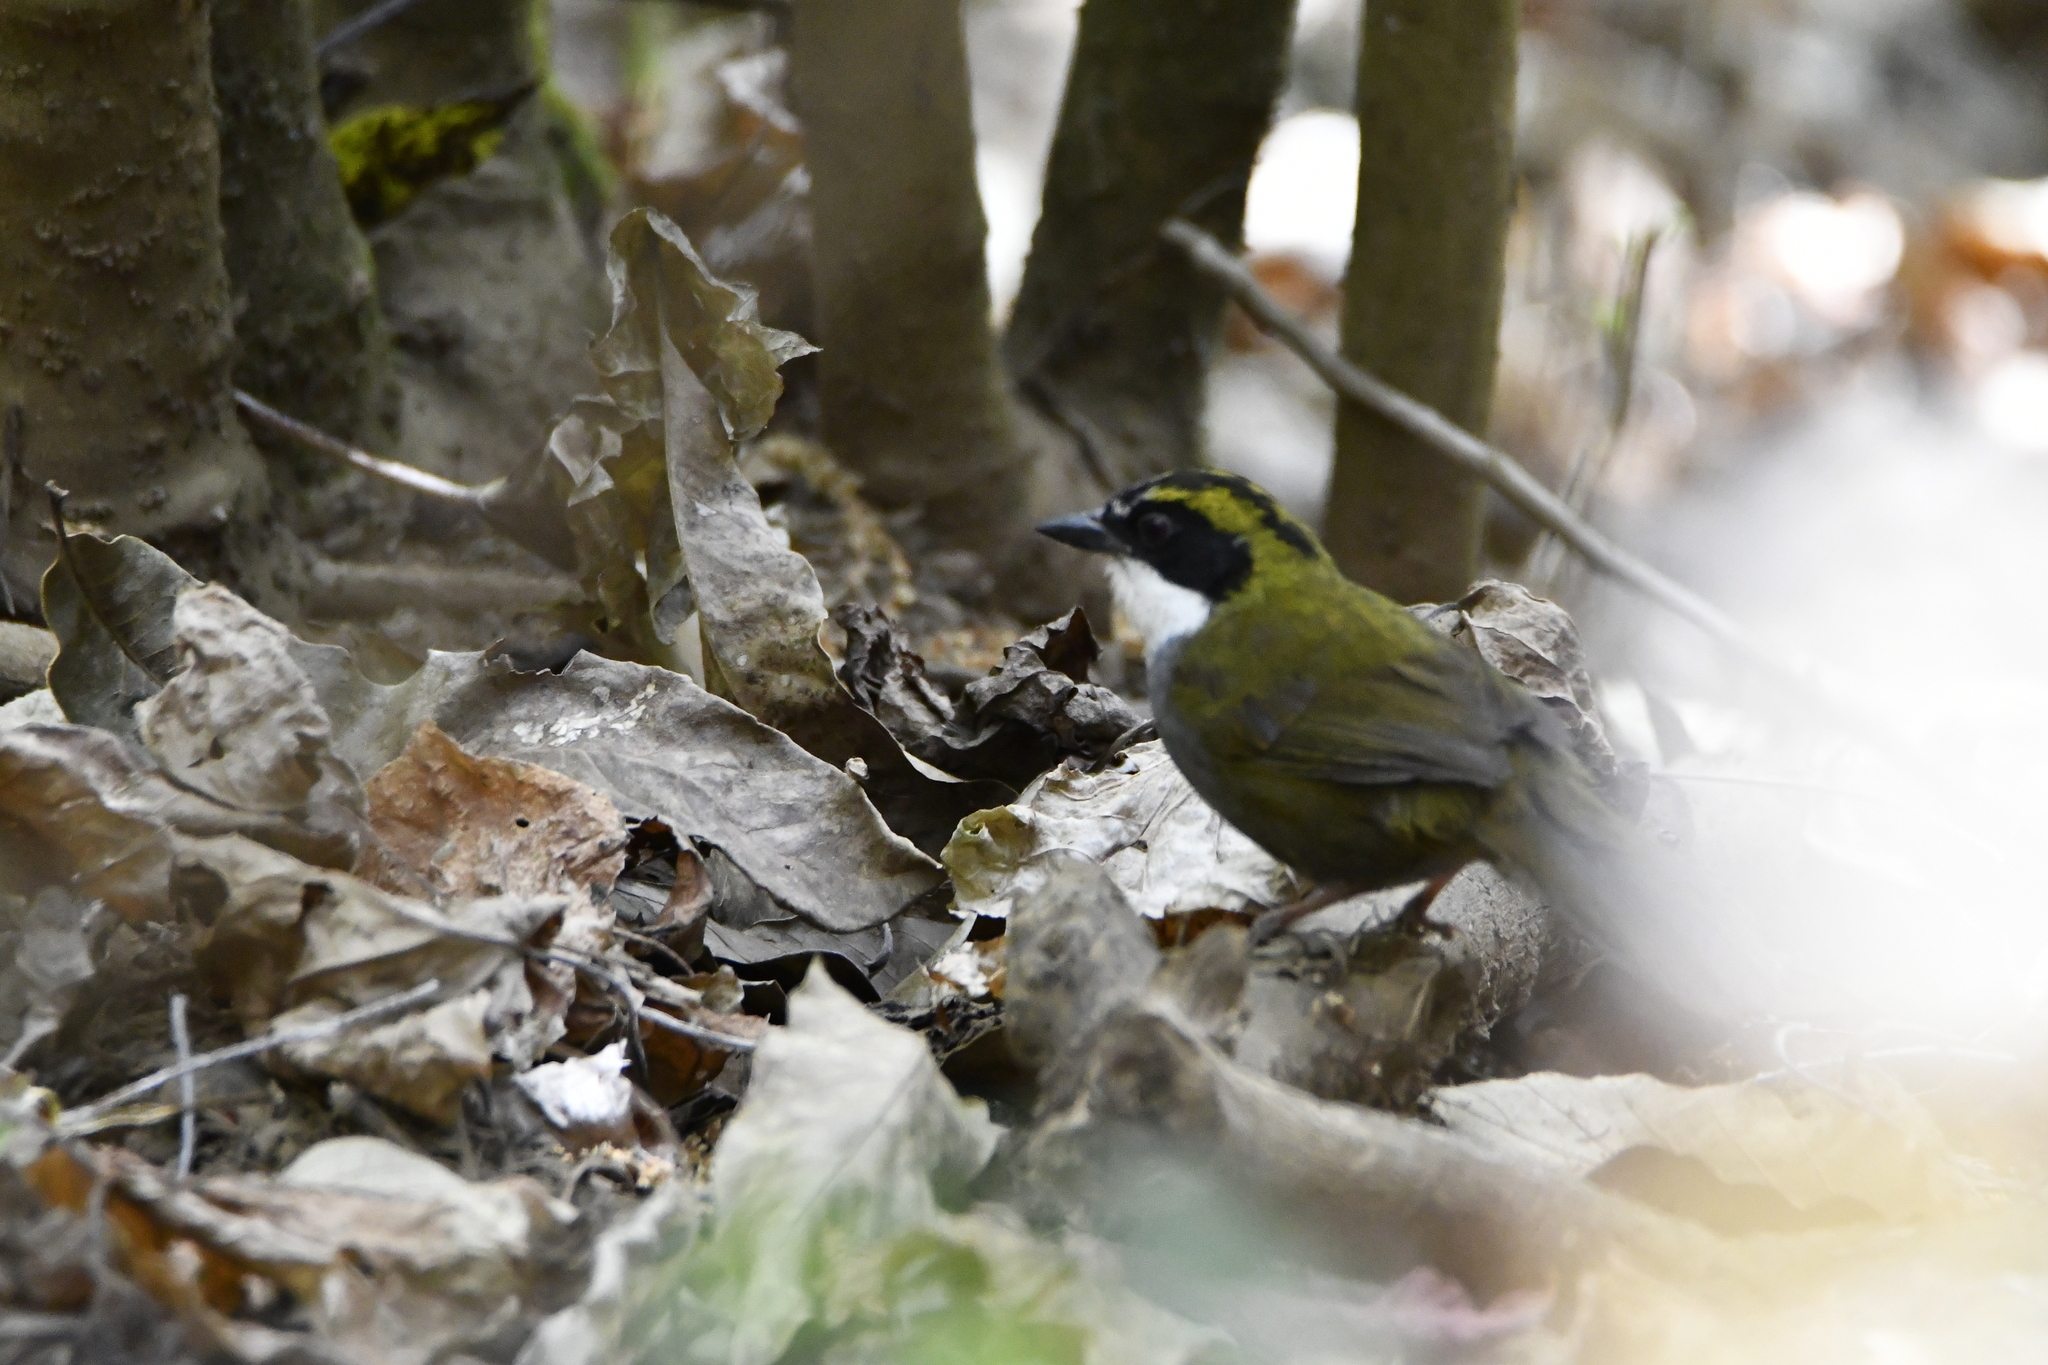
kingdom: Animalia
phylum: Chordata
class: Aves
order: Passeriformes
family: Passerellidae
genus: Arremon
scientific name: Arremon virenticeps
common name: Green-striped brushfinch
